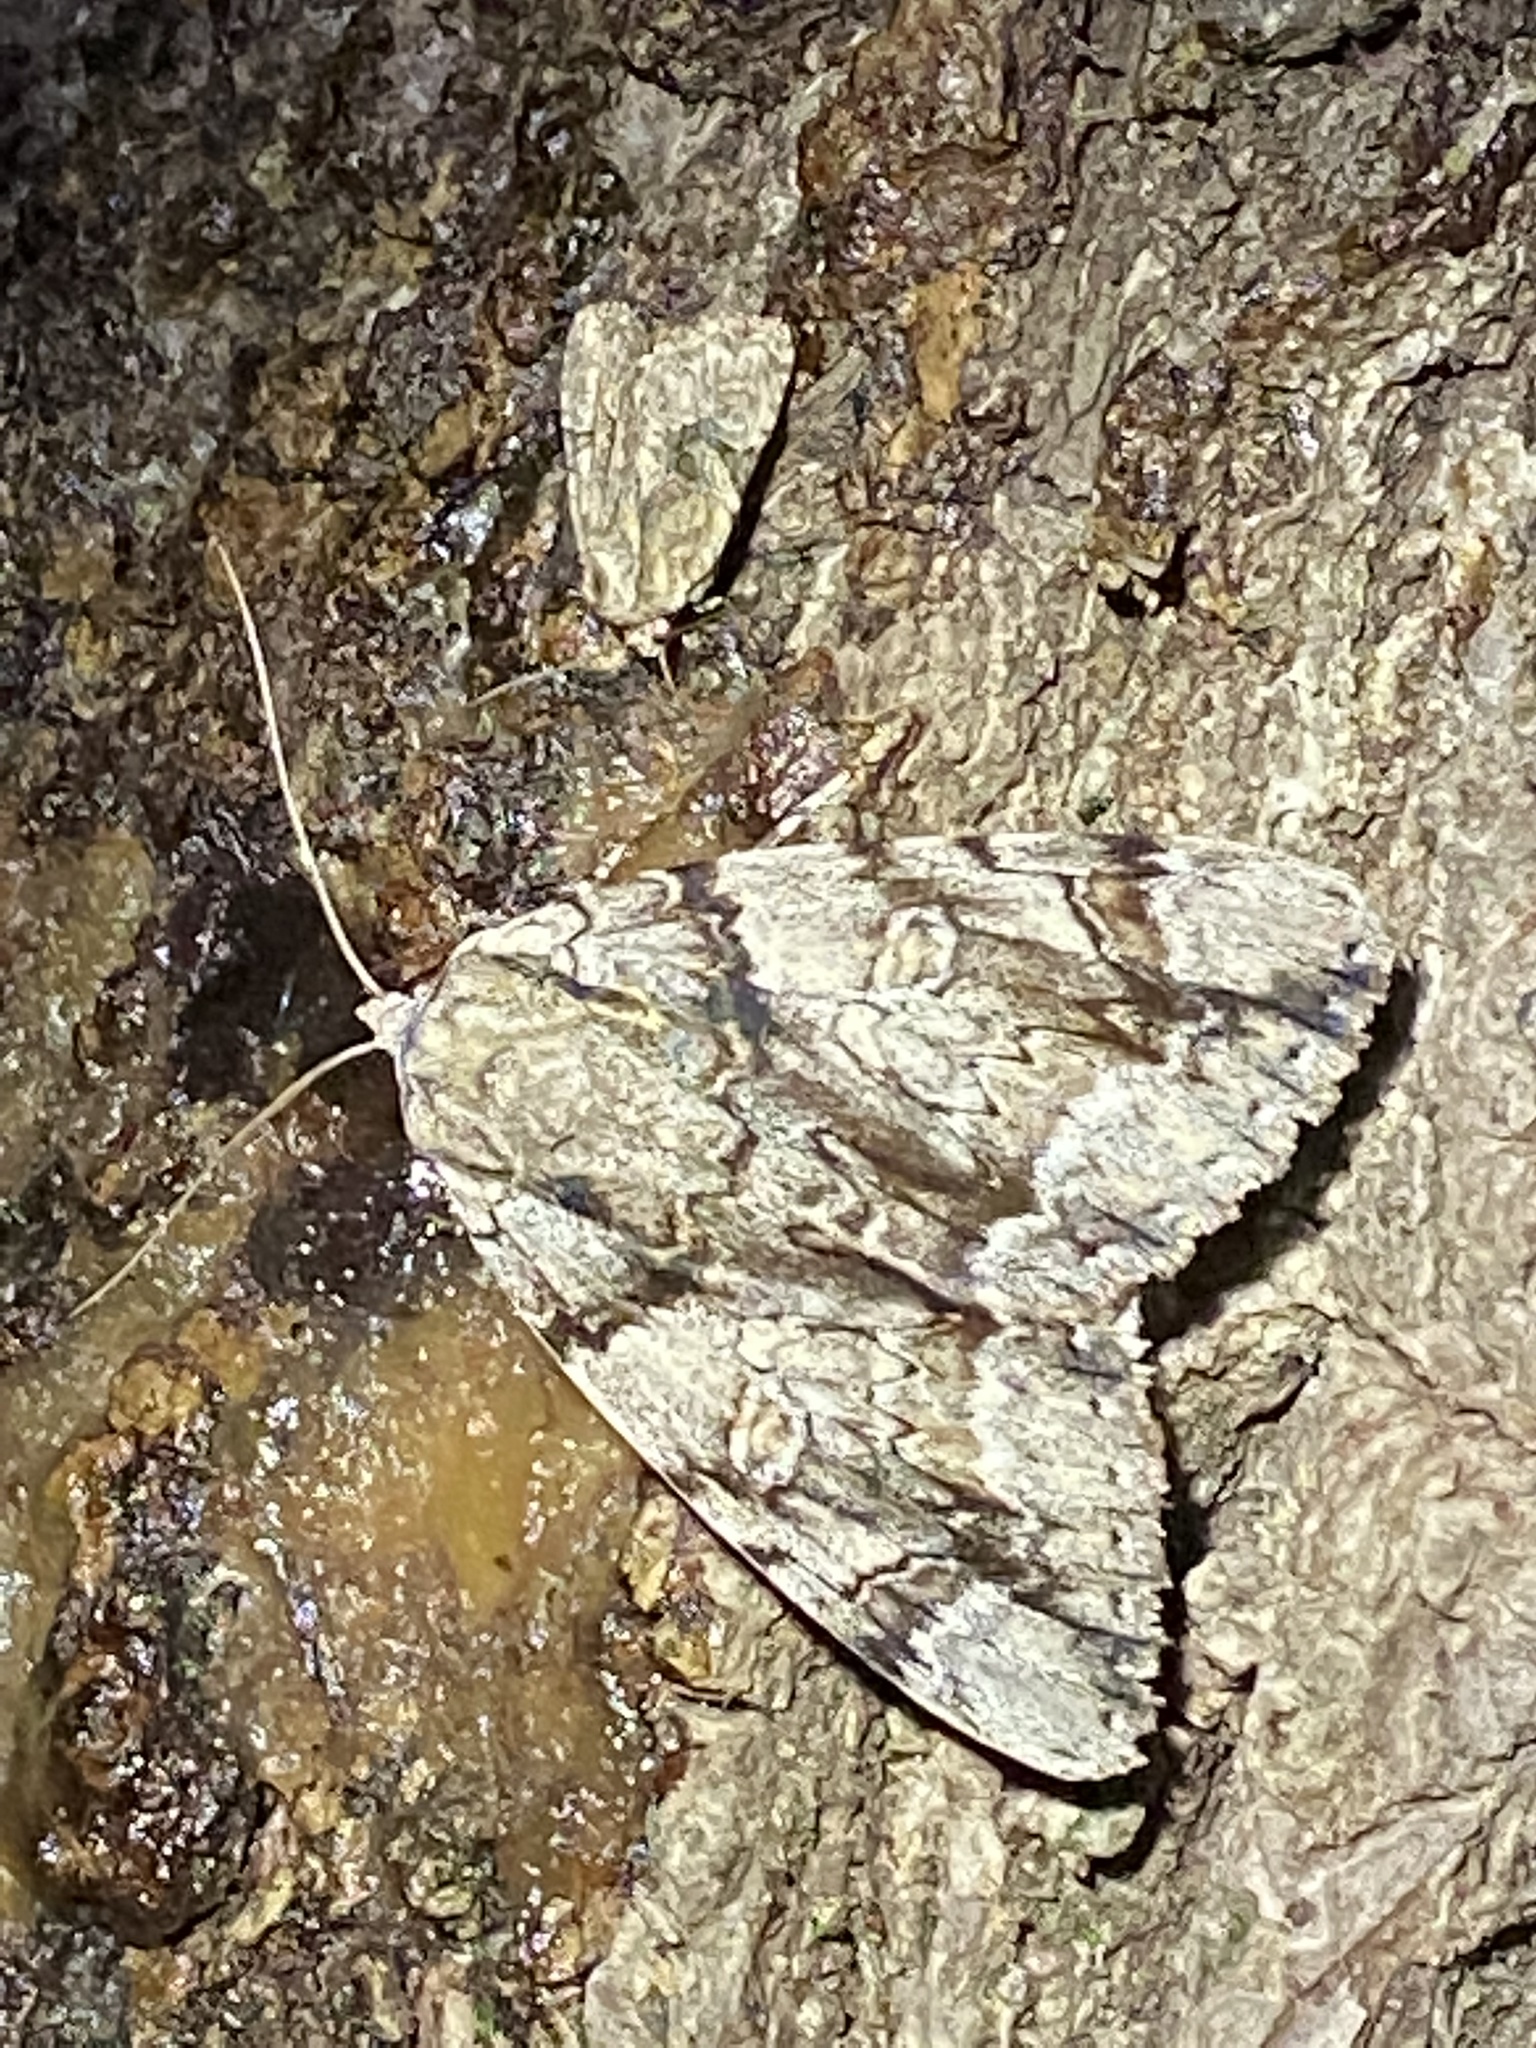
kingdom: Animalia
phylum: Arthropoda
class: Insecta
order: Lepidoptera
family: Erebidae
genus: Catocala
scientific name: Catocala vidua
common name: The widow
